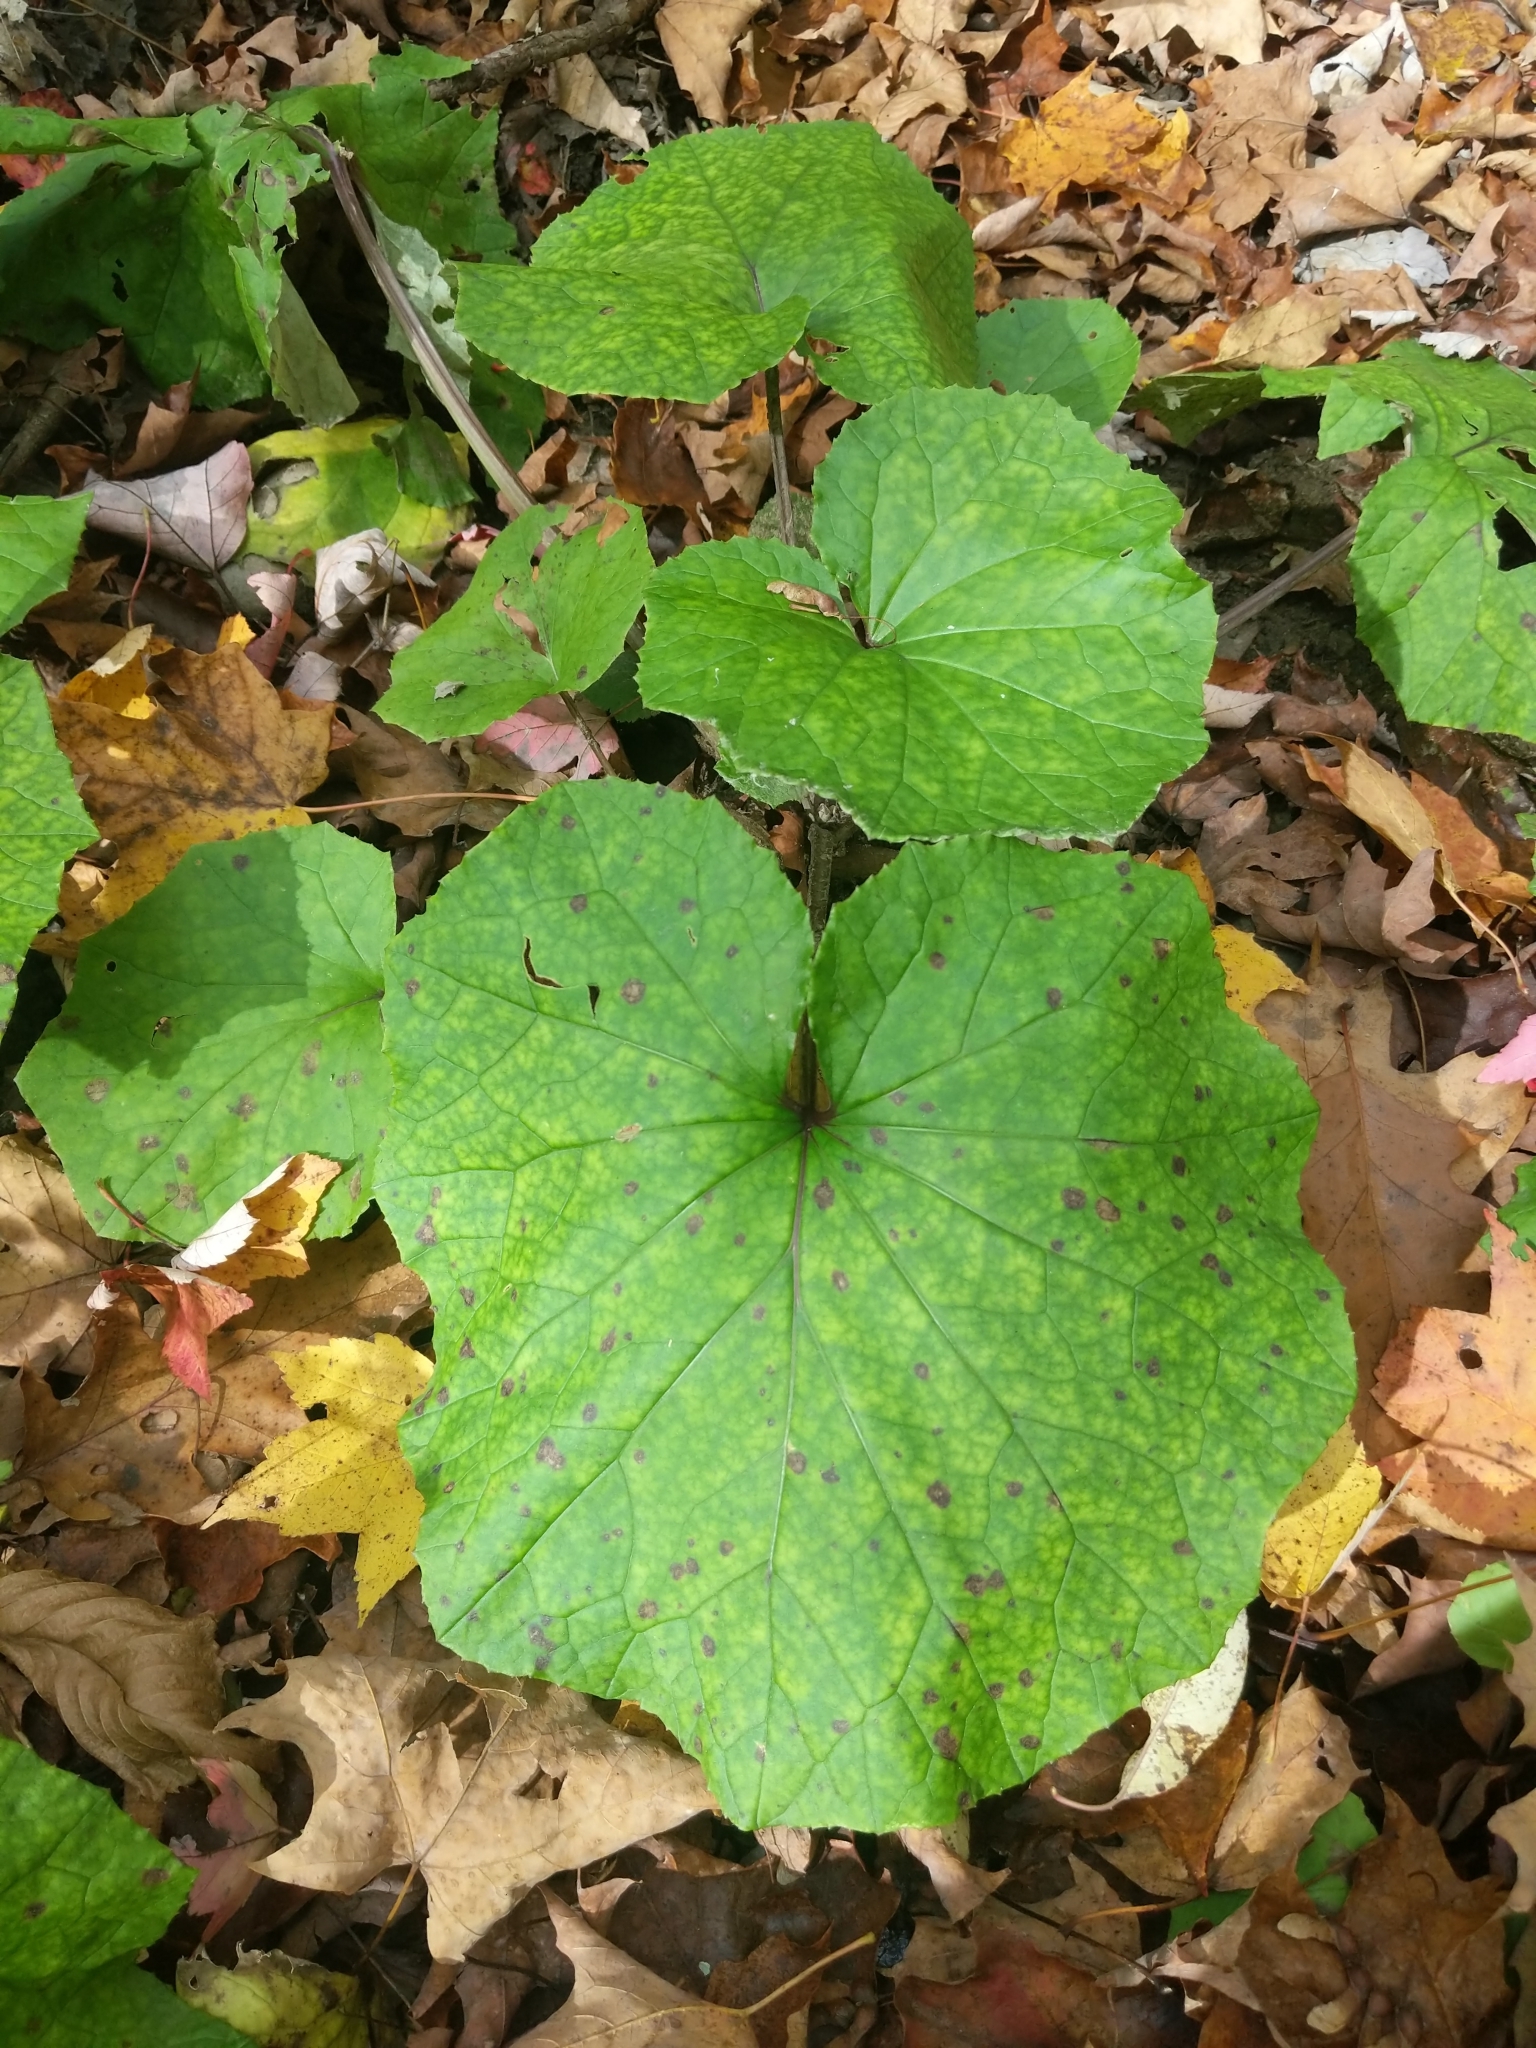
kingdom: Plantae
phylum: Tracheophyta
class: Magnoliopsida
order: Asterales
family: Asteraceae
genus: Tussilago
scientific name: Tussilago farfara
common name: Coltsfoot
